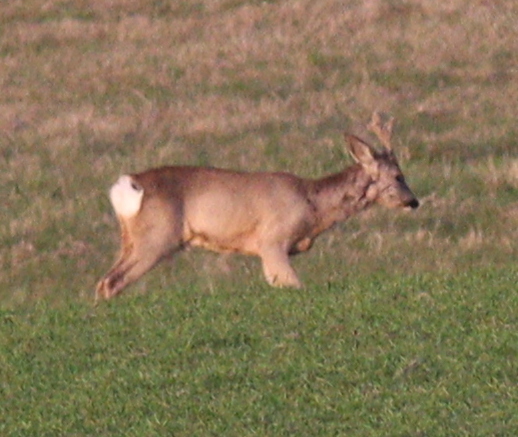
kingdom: Animalia
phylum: Chordata
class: Mammalia
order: Artiodactyla
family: Cervidae
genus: Capreolus
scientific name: Capreolus capreolus
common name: Western roe deer
